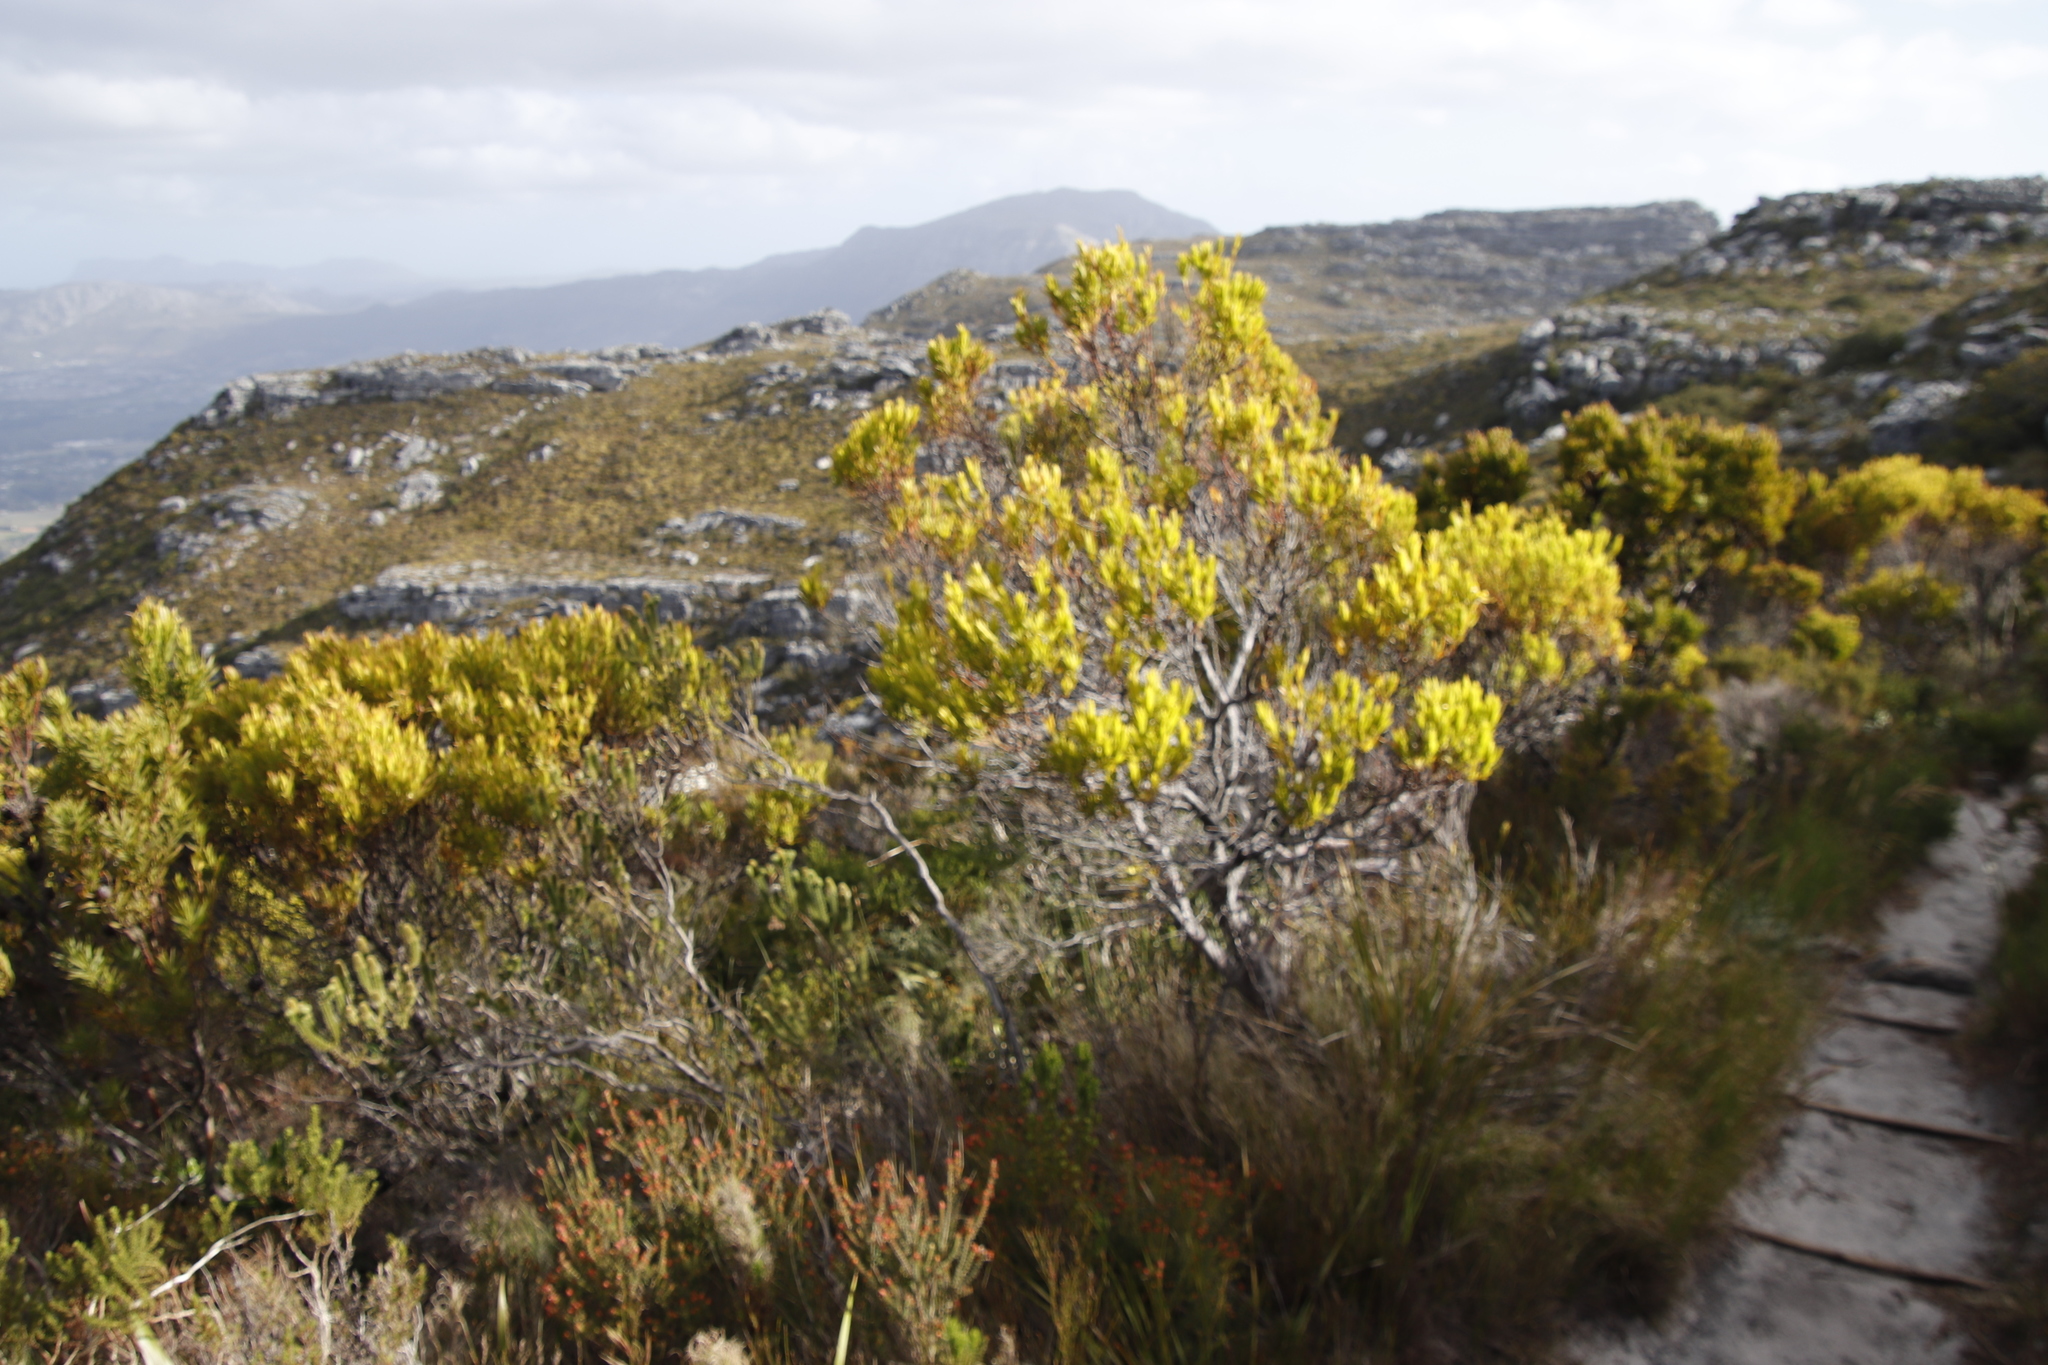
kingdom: Plantae
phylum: Tracheophyta
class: Magnoliopsida
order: Proteales
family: Proteaceae
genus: Leucadendron
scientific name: Leucadendron xanthoconus
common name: Sickle-leaf conebush
